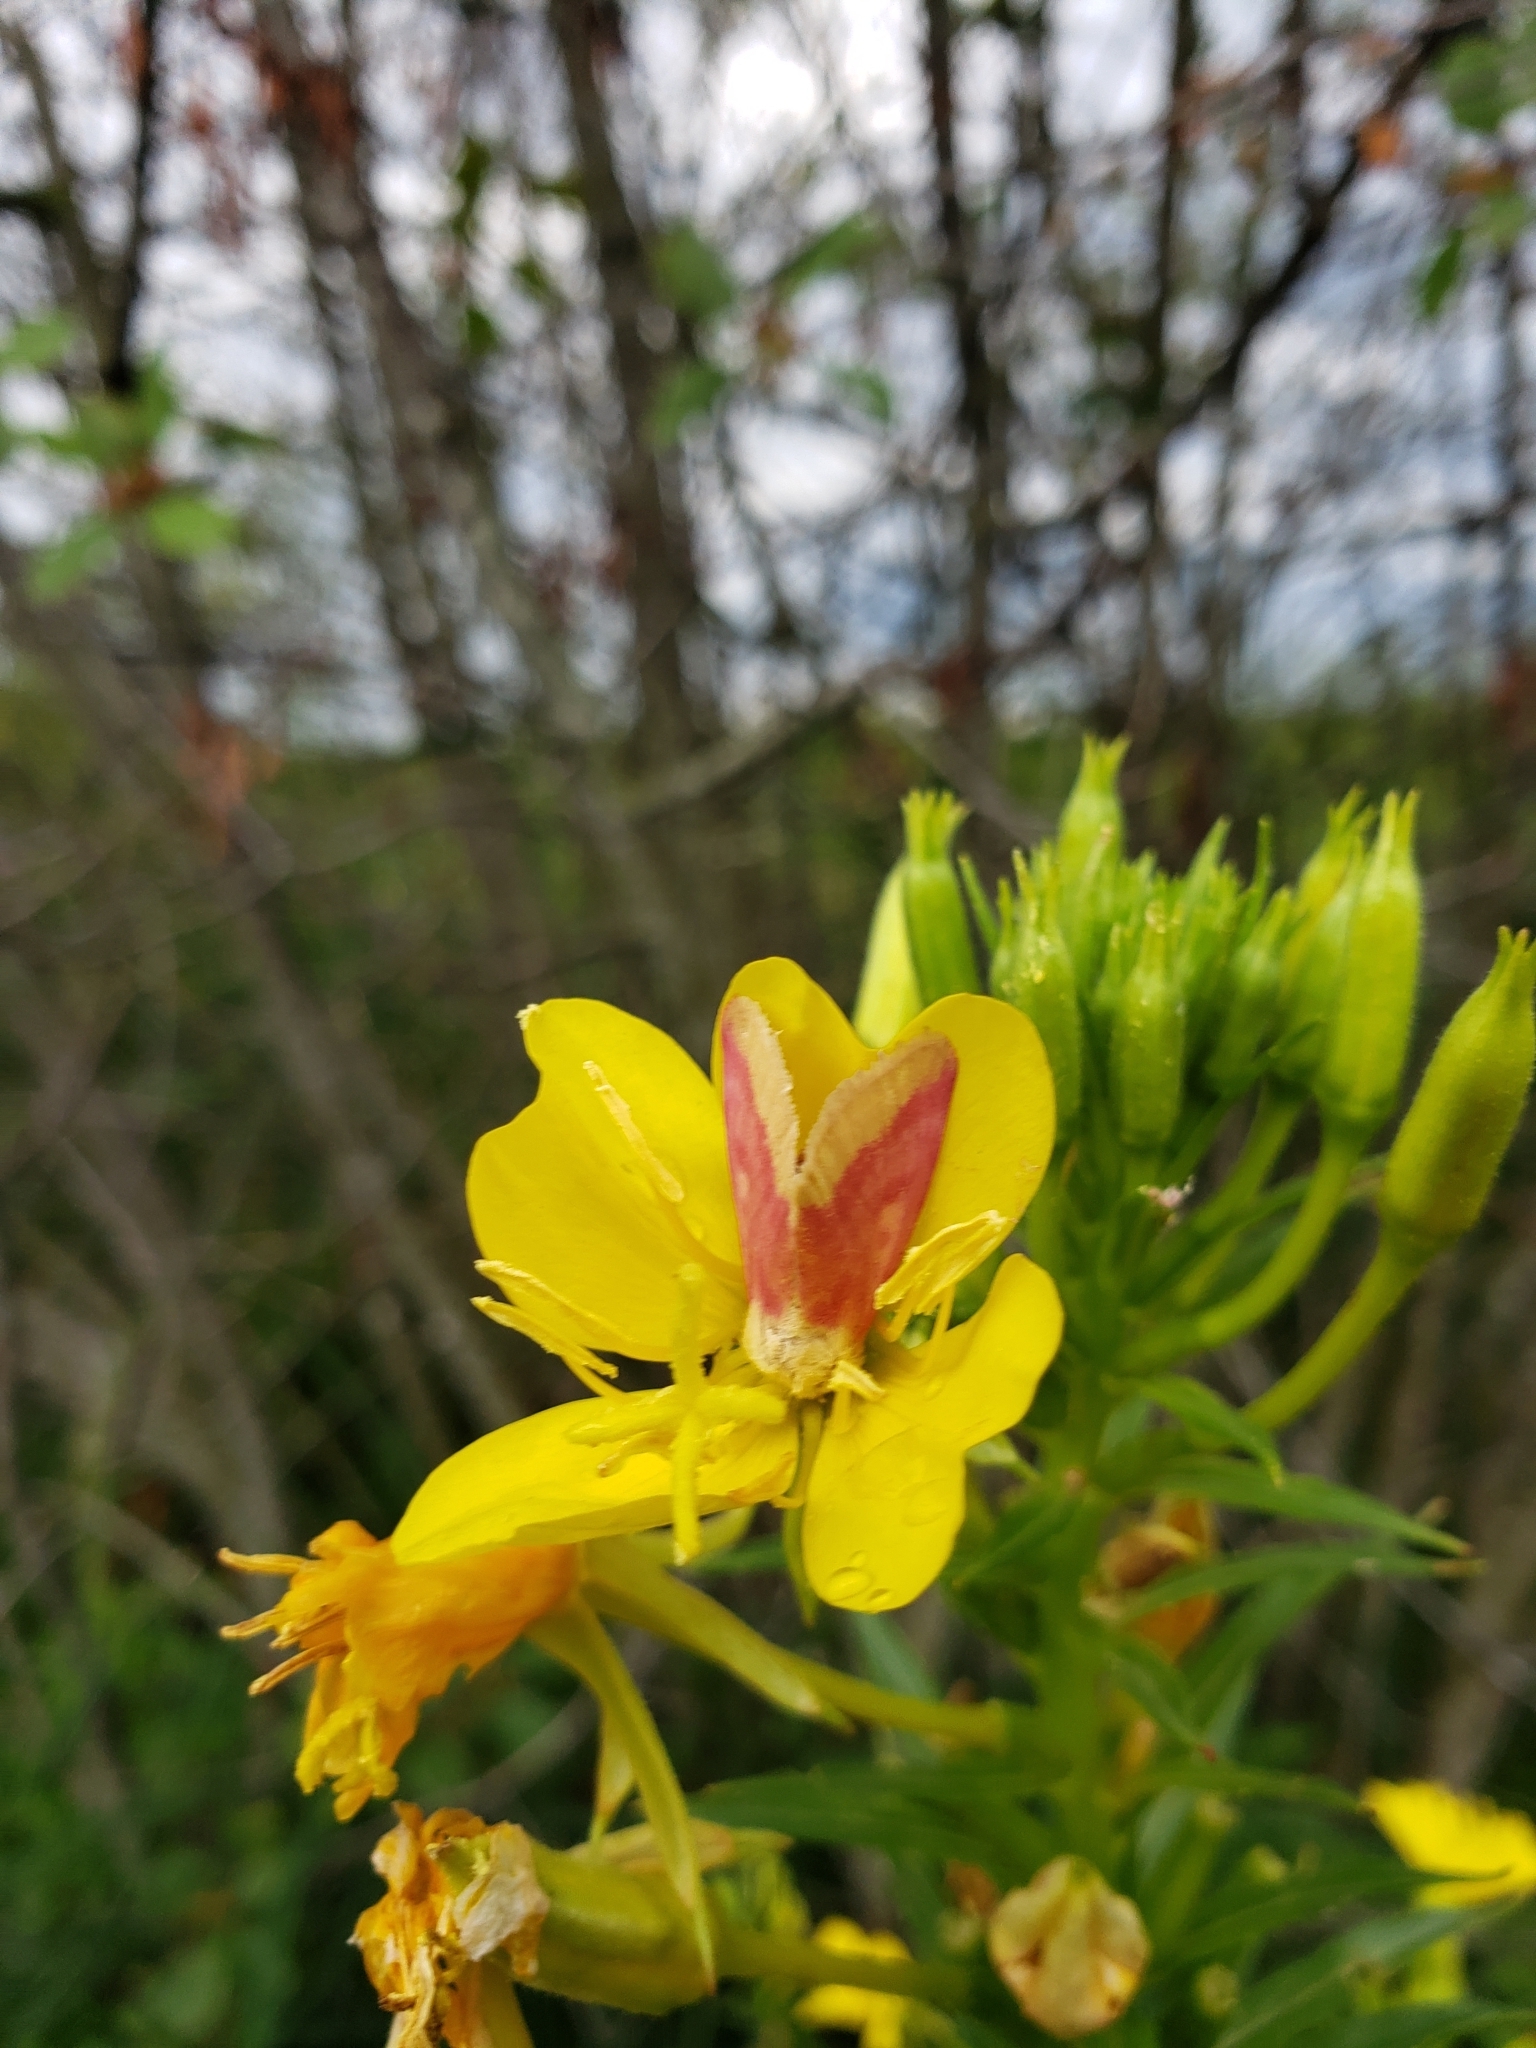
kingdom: Animalia
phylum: Arthropoda
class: Insecta
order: Lepidoptera
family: Noctuidae
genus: Schinia
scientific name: Schinia florida
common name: Primrose moth
